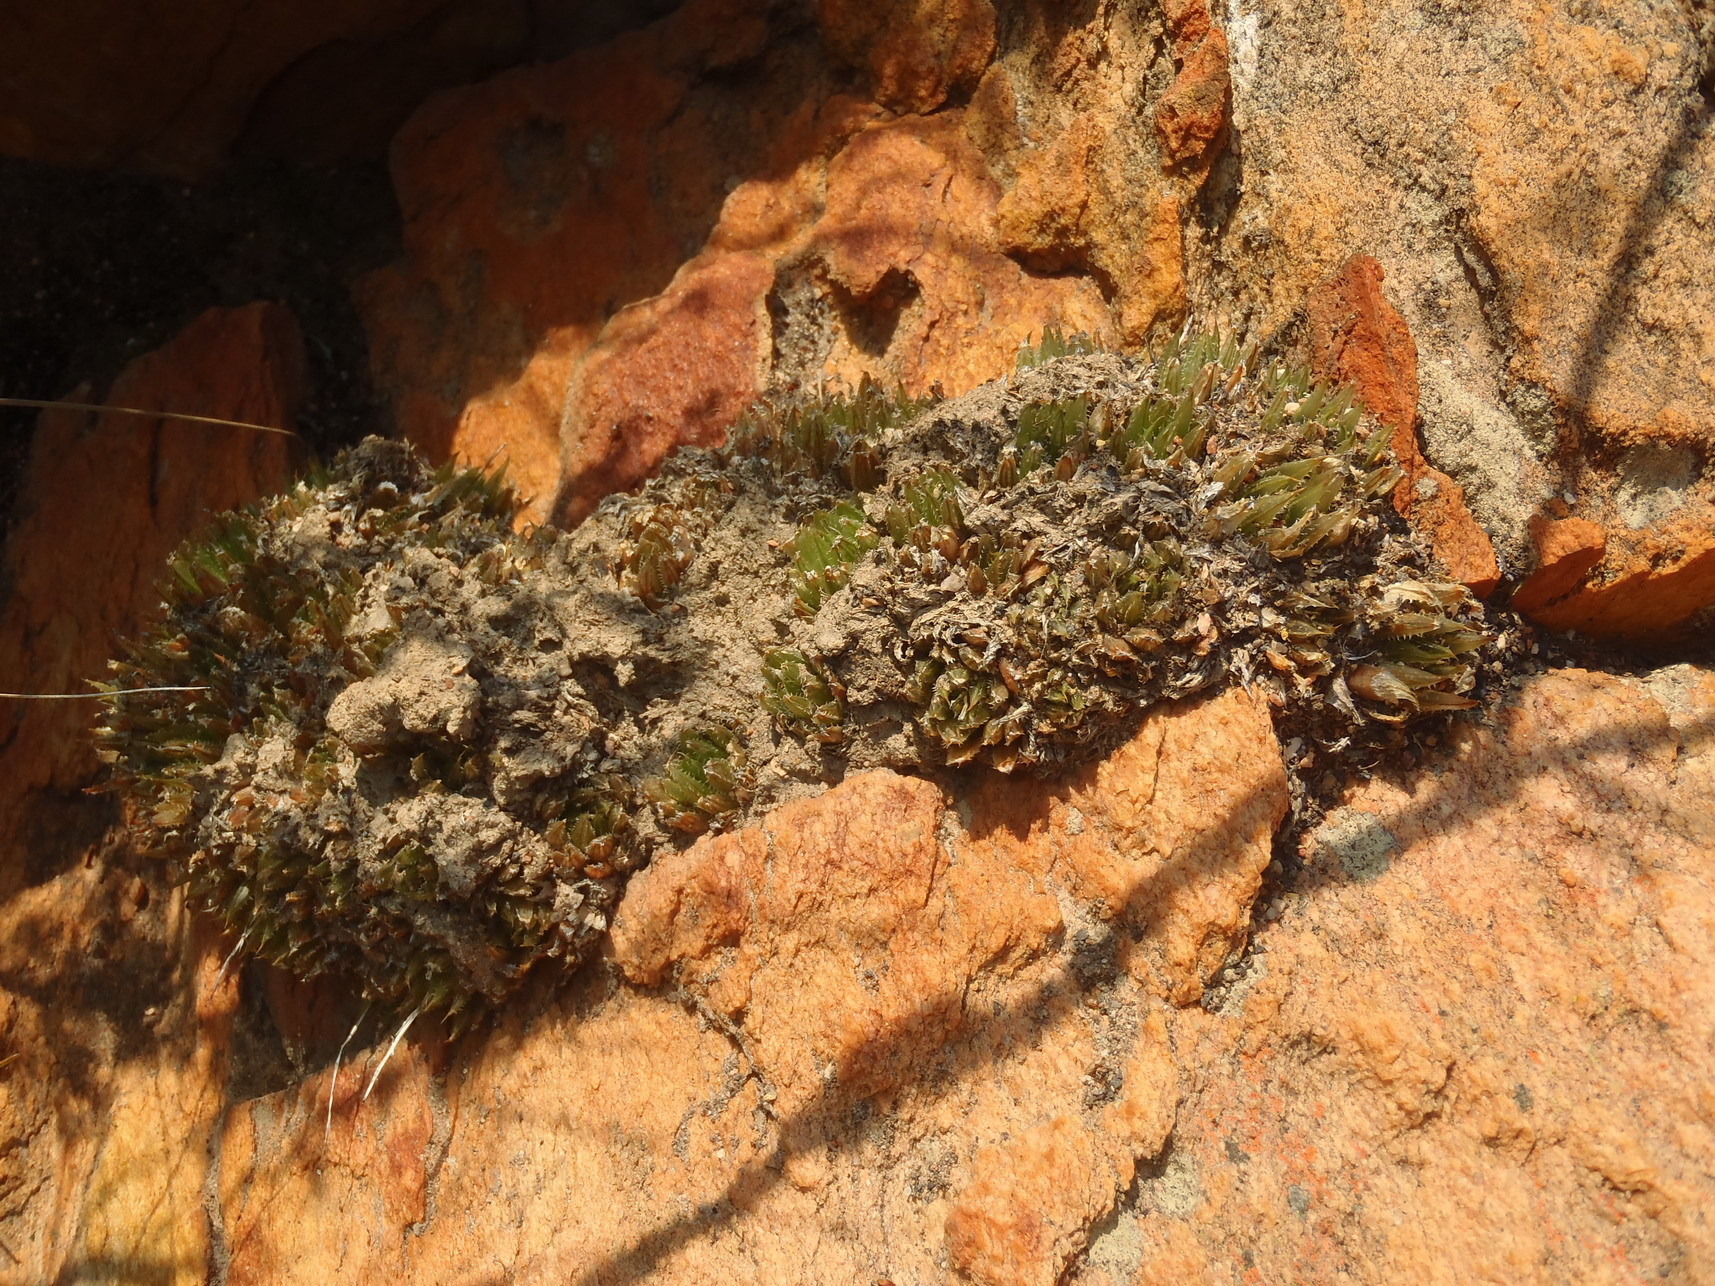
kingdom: Plantae
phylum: Tracheophyta
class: Liliopsida
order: Asparagales
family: Asphodelaceae
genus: Haworthia
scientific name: Haworthia outeniquensis
